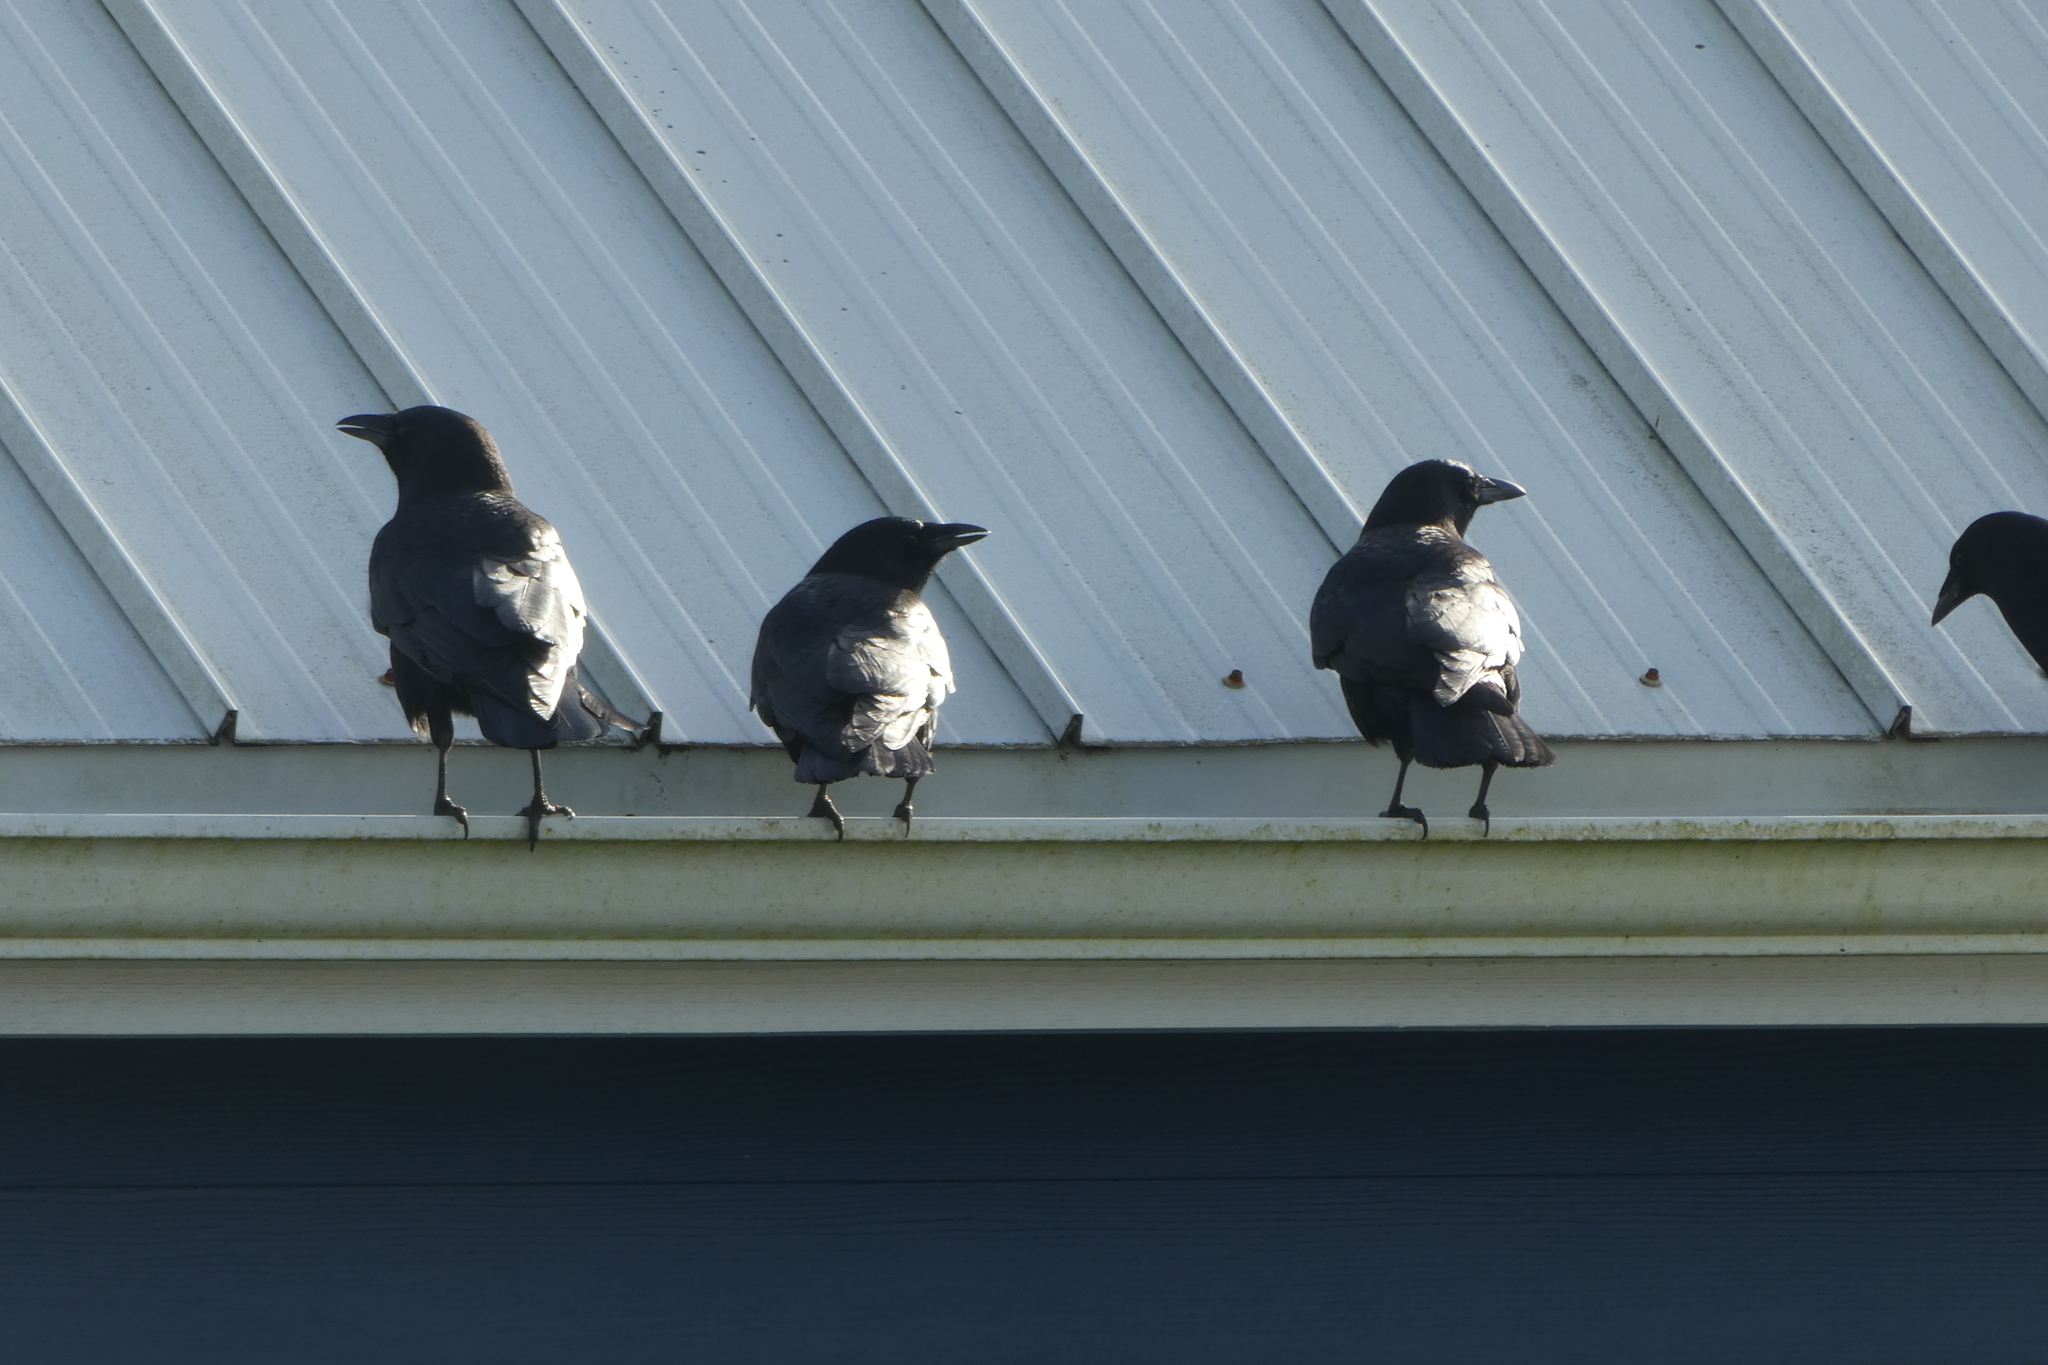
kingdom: Animalia
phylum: Chordata
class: Aves
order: Passeriformes
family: Corvidae
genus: Corvus
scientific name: Corvus brachyrhynchos
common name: American crow
